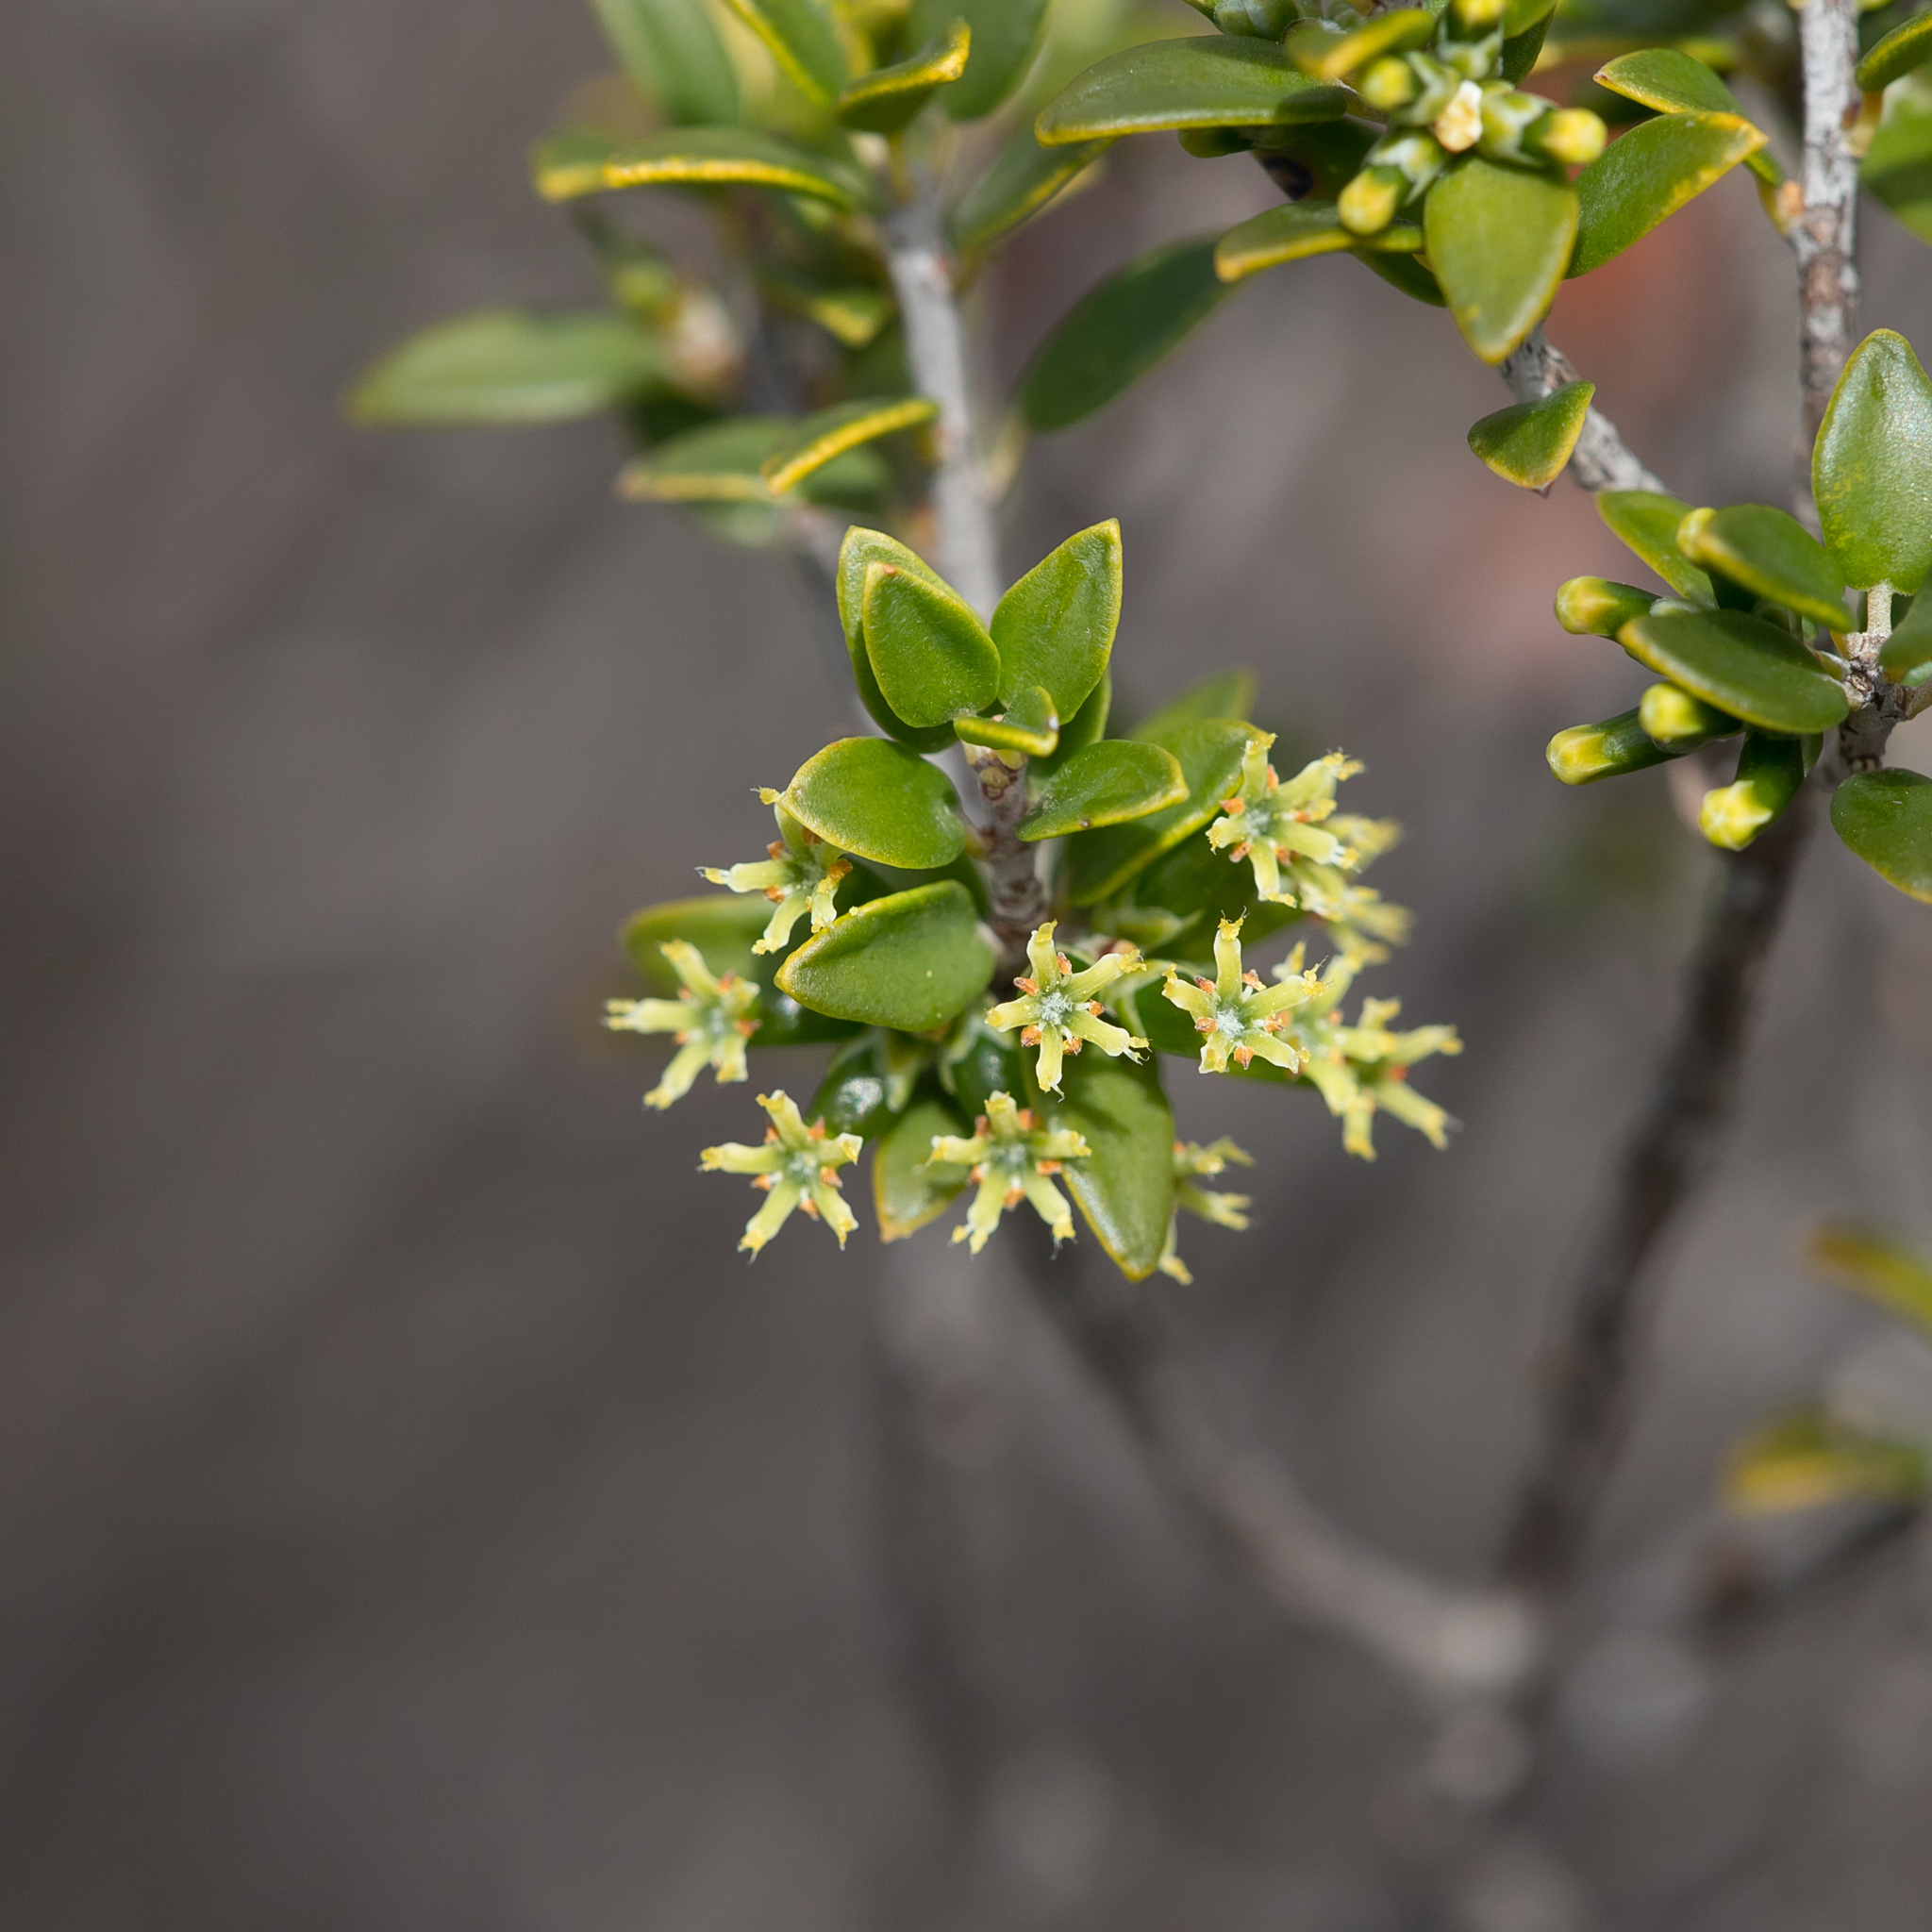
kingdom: Plantae
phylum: Tracheophyta
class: Magnoliopsida
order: Ericales
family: Ericaceae
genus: Acrotriche
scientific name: Acrotriche cordata
